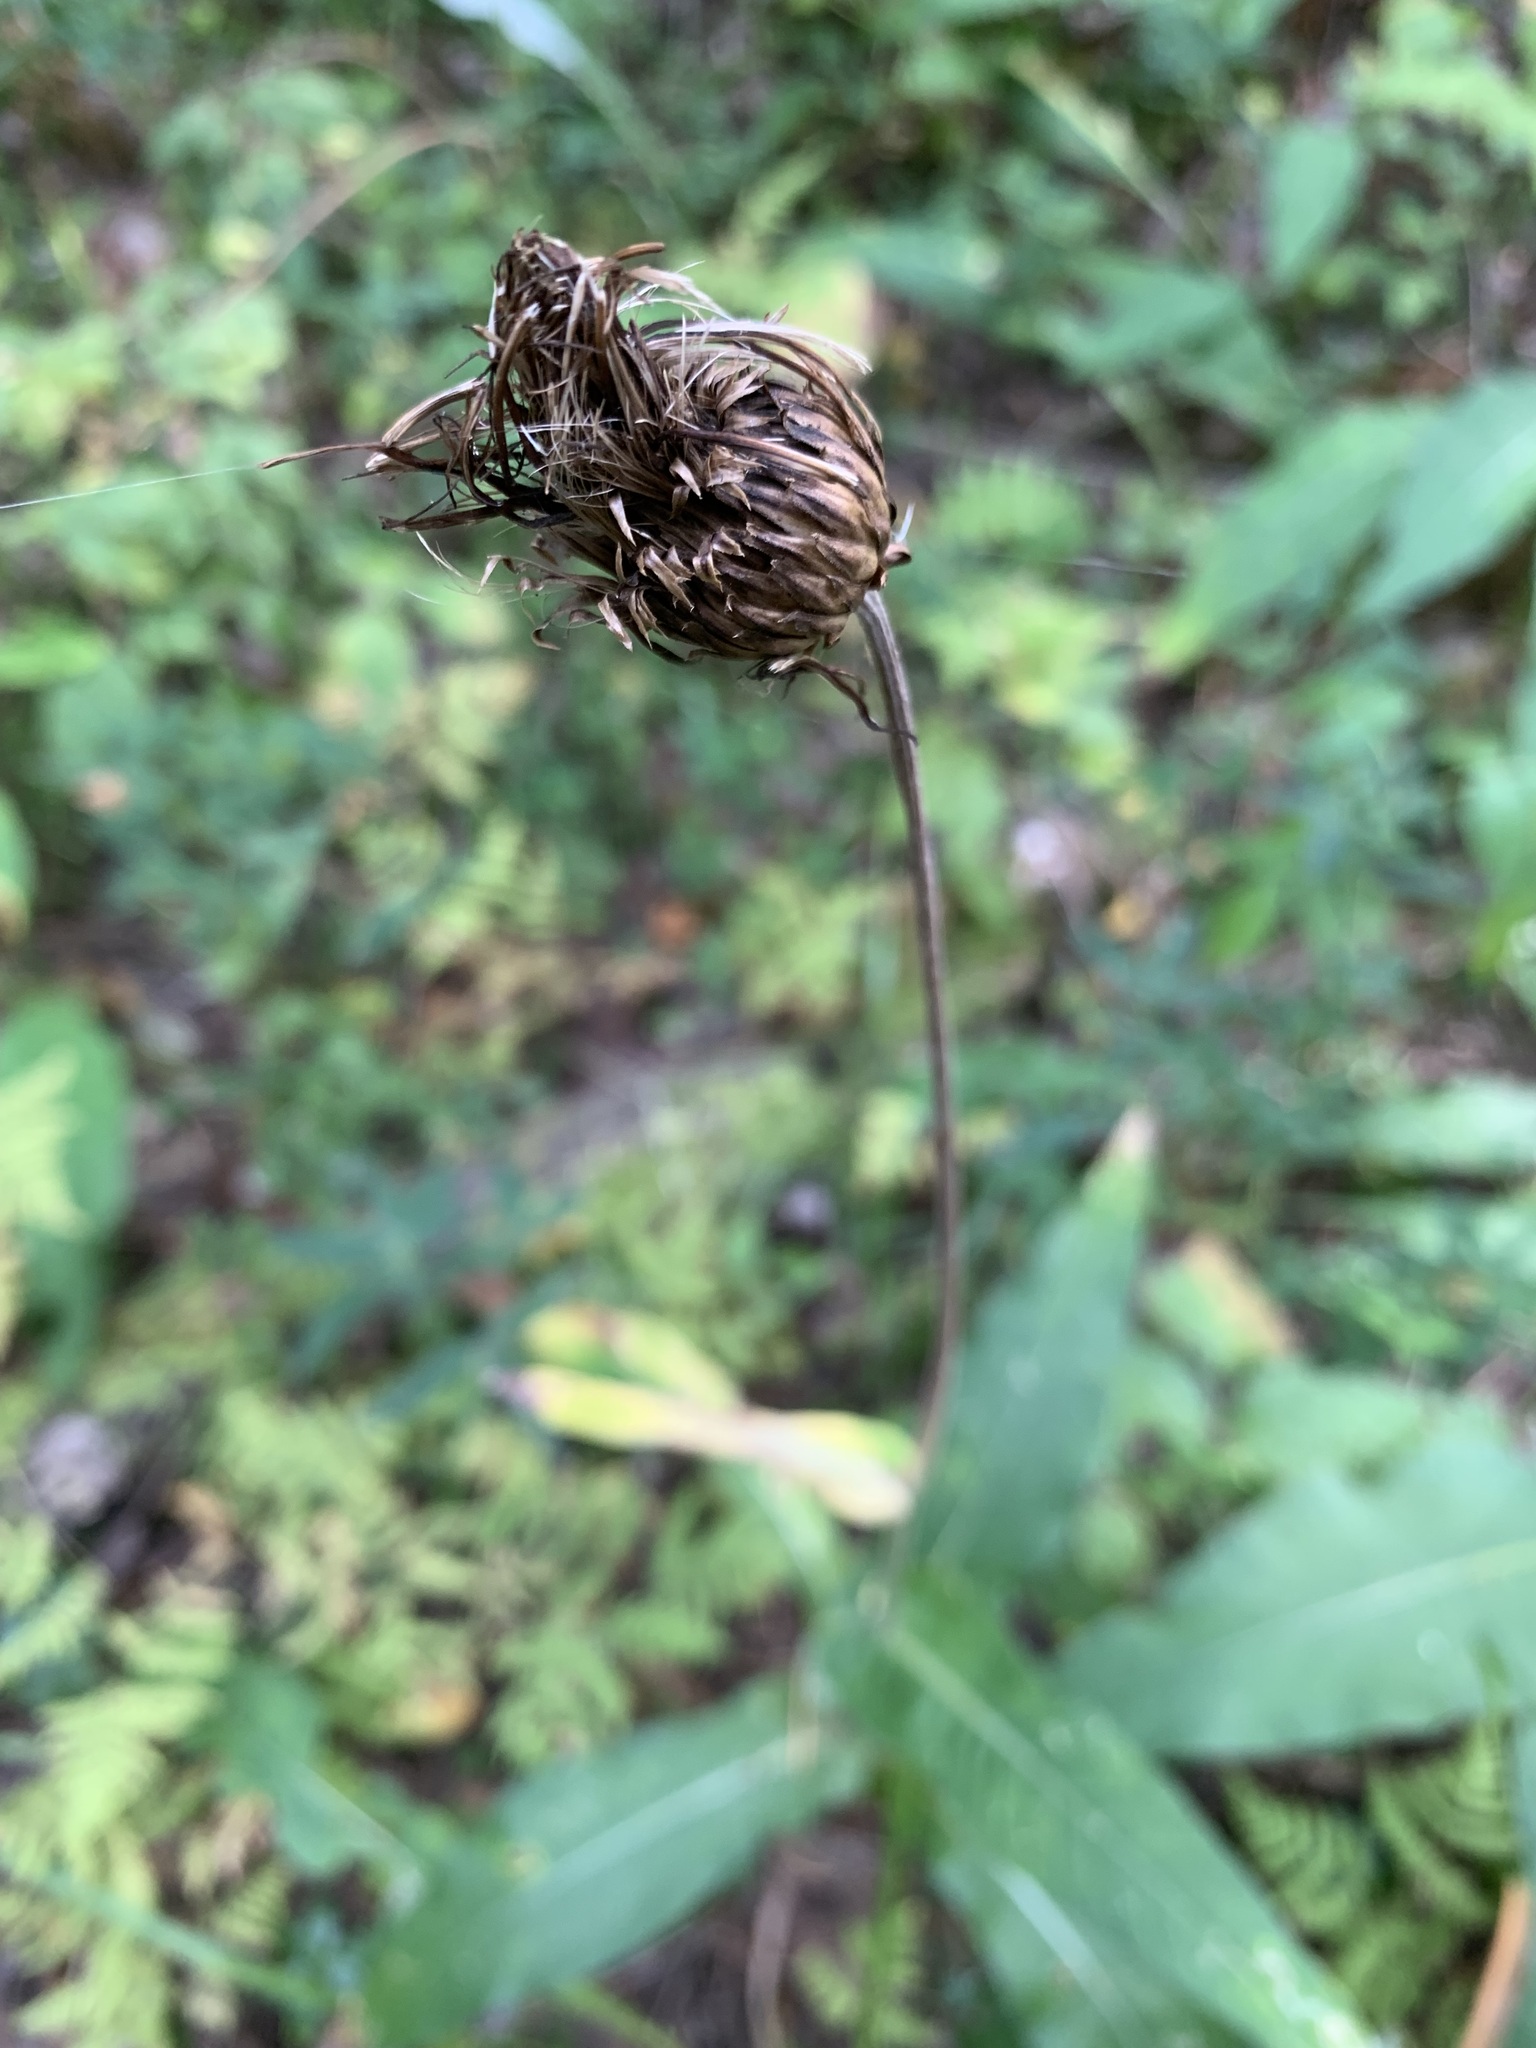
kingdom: Plantae
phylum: Tracheophyta
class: Magnoliopsida
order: Asterales
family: Asteraceae
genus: Cirsium
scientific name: Cirsium heterophyllum
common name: Melancholy thistle
